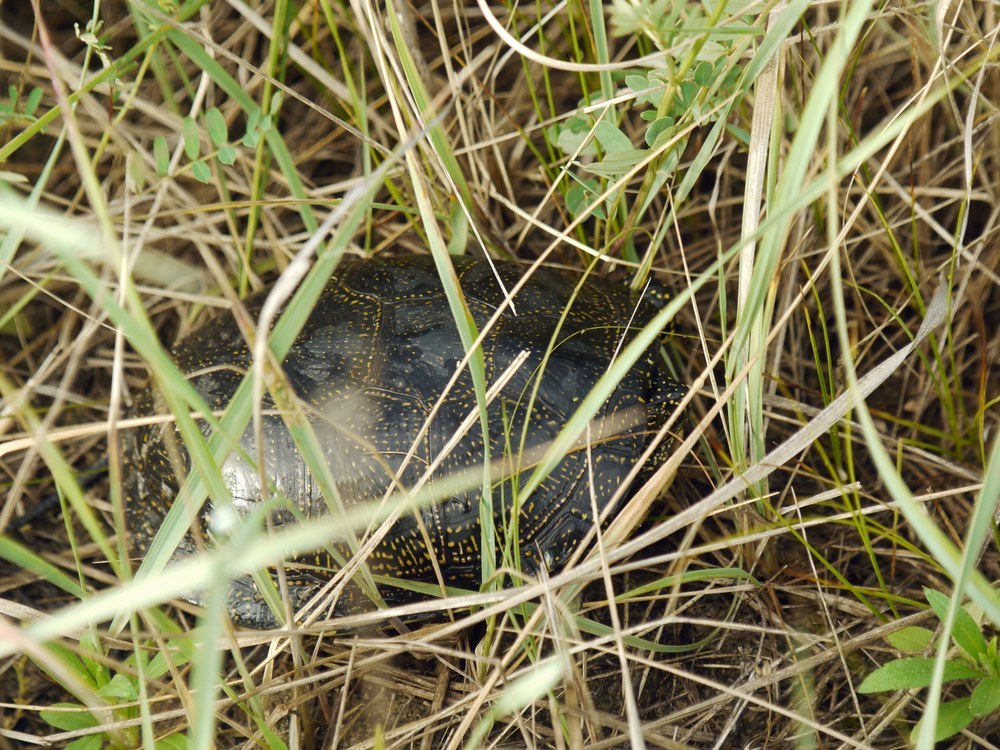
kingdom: Animalia
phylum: Chordata
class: Testudines
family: Emydidae
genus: Emys
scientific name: Emys orbicularis
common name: European pond turtle
